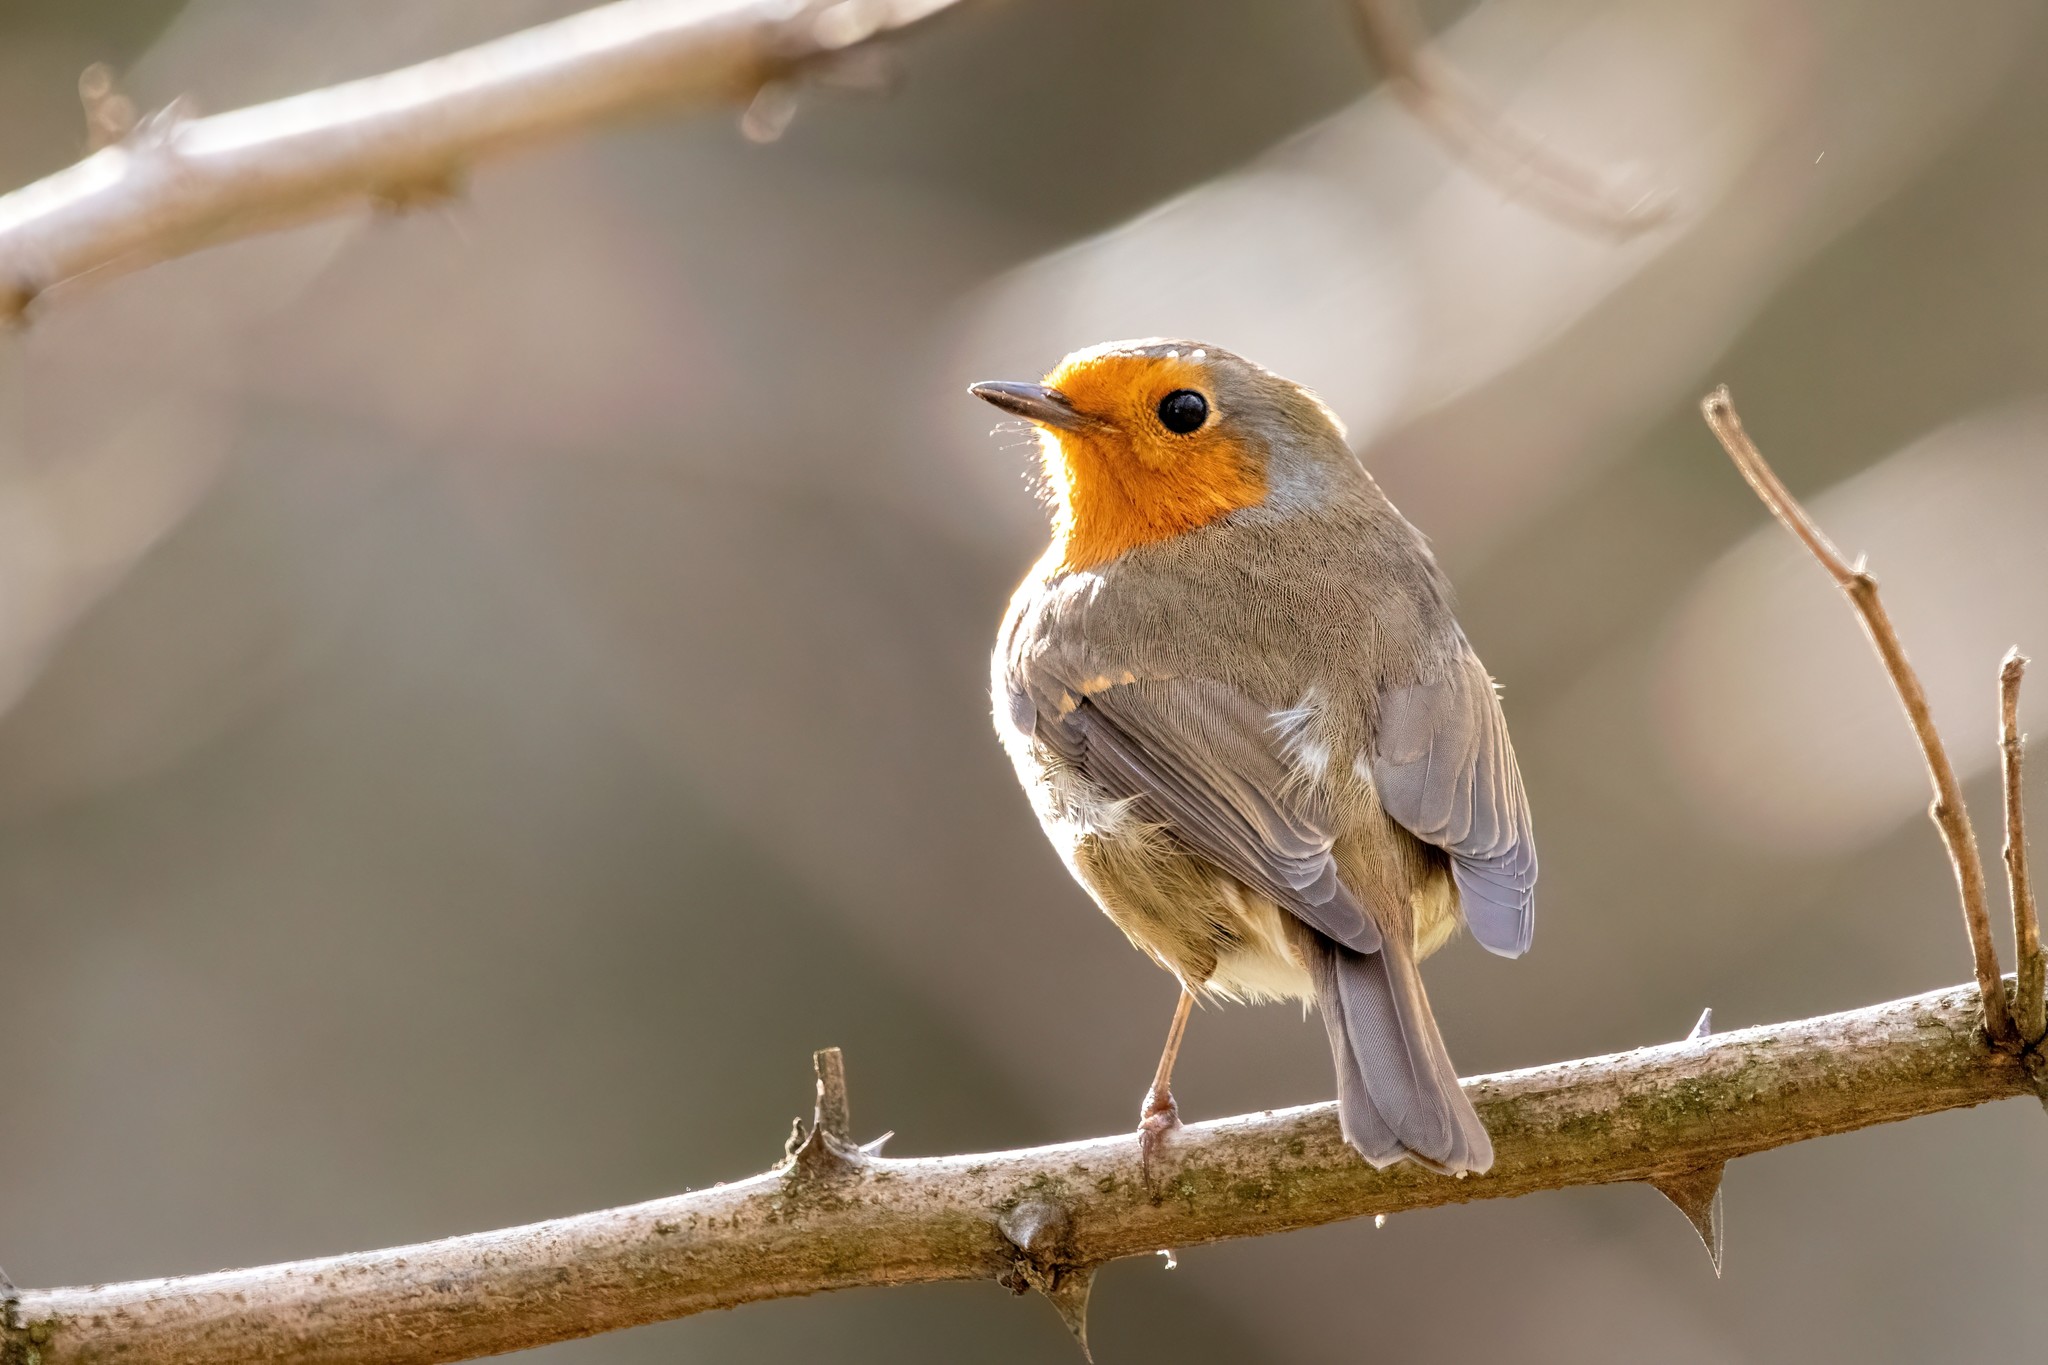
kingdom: Animalia
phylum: Chordata
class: Aves
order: Passeriformes
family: Muscicapidae
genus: Erithacus
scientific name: Erithacus rubecula
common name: European robin
